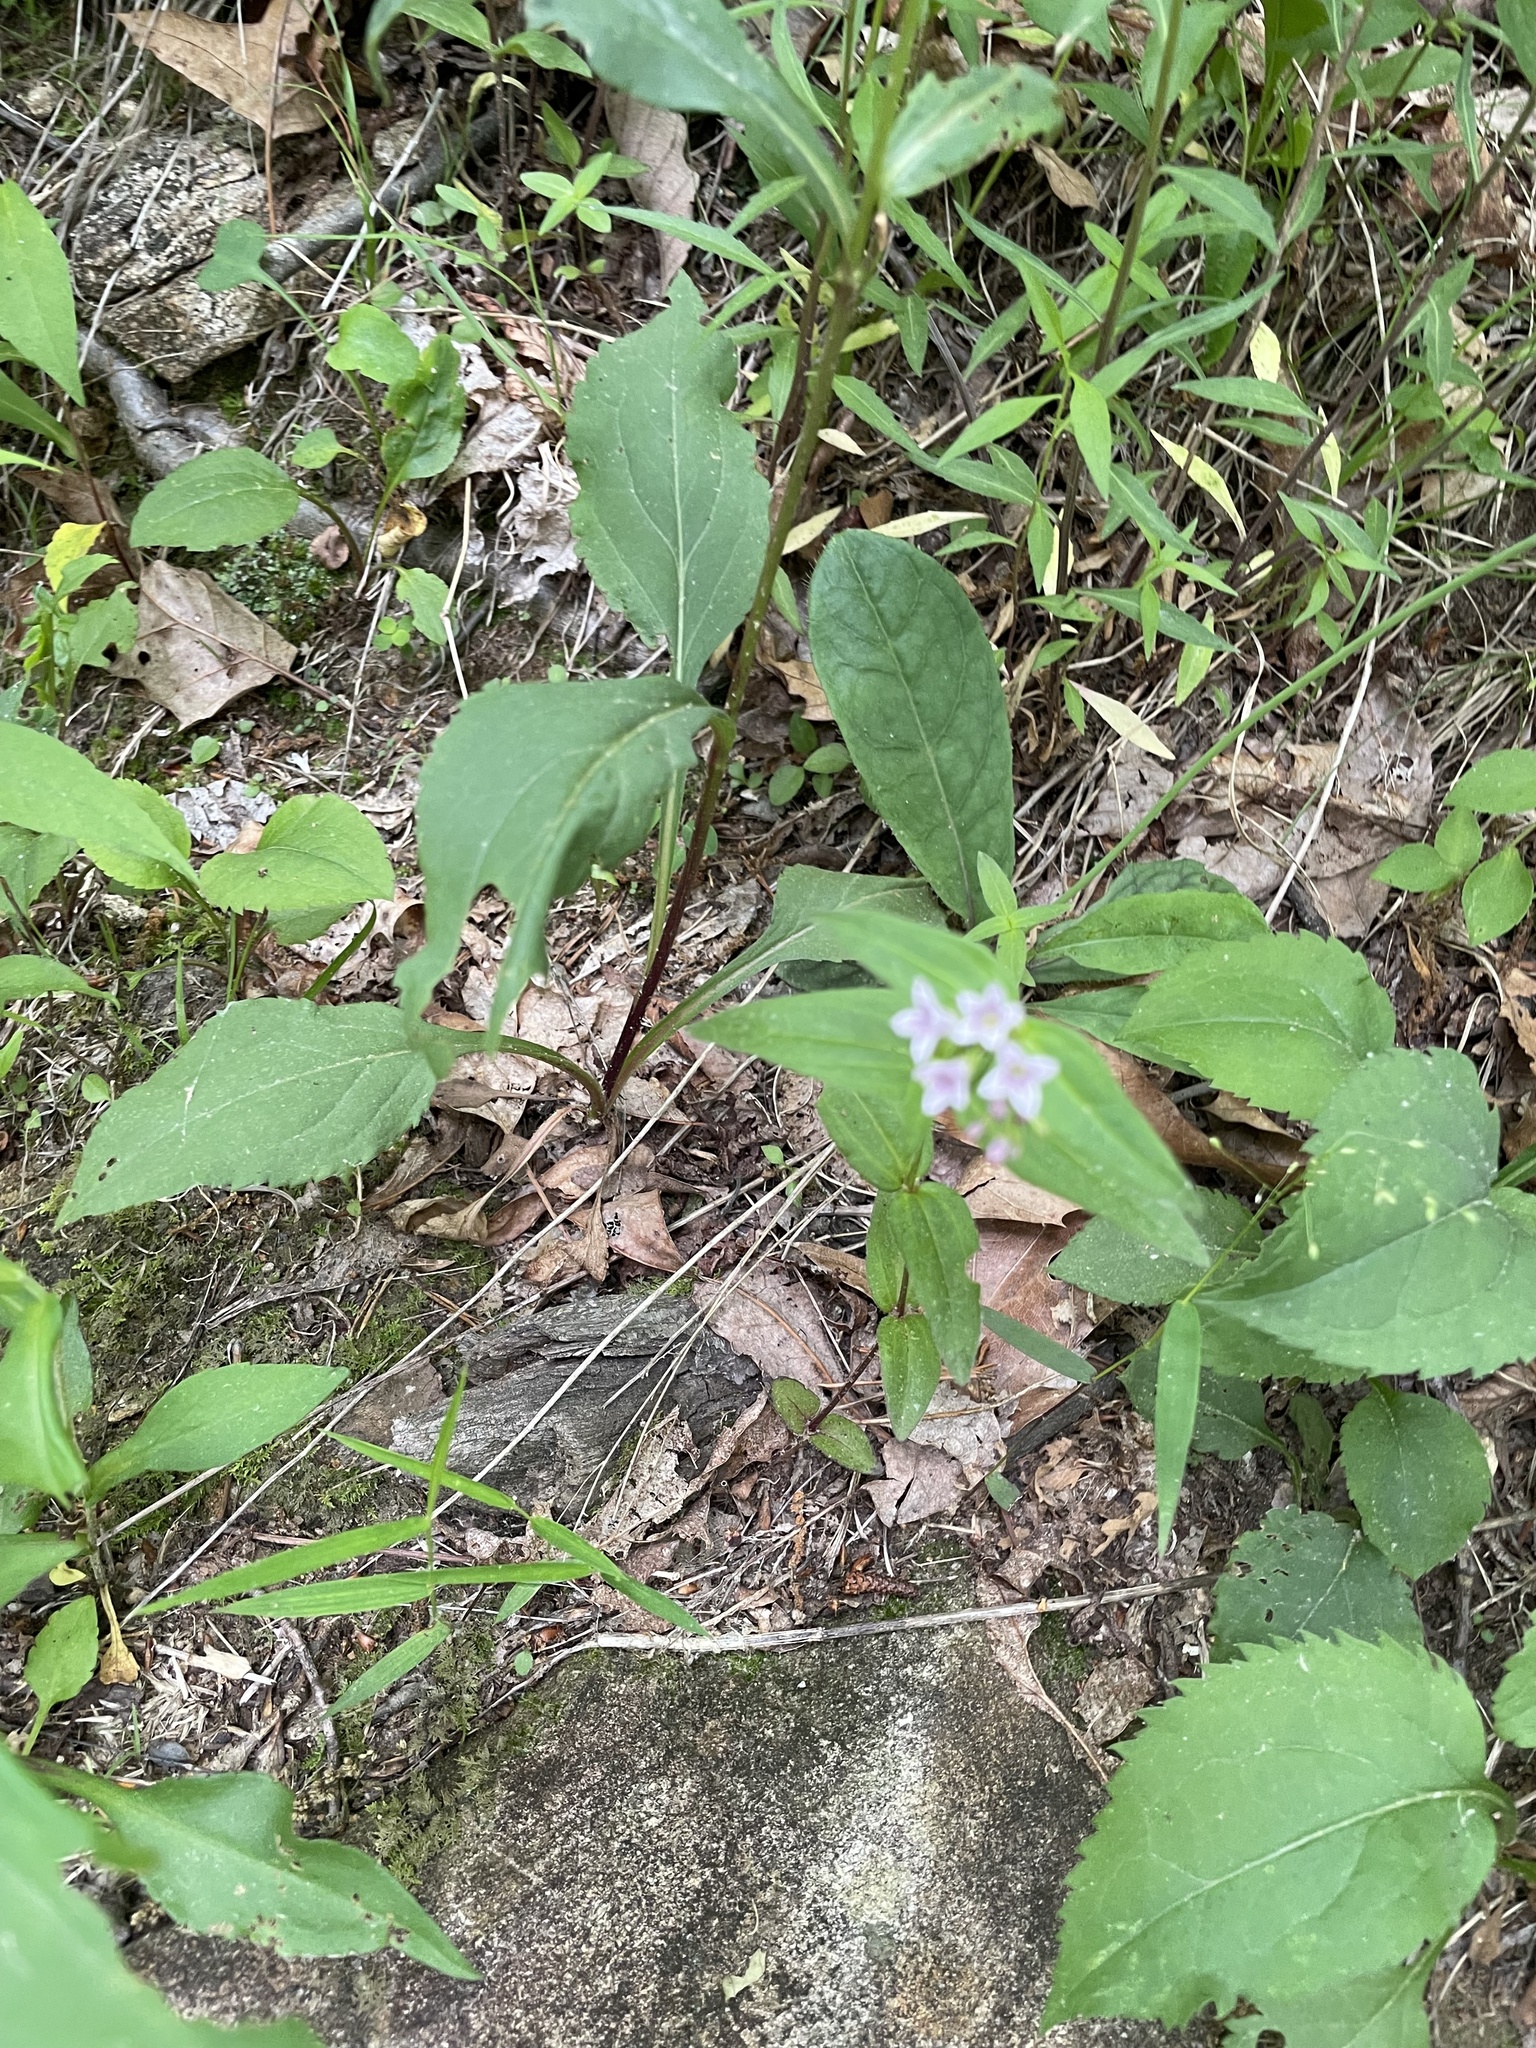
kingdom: Plantae
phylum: Tracheophyta
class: Magnoliopsida
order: Gentianales
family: Rubiaceae
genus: Houstonia
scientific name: Houstonia purpurea
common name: Summer bluet
